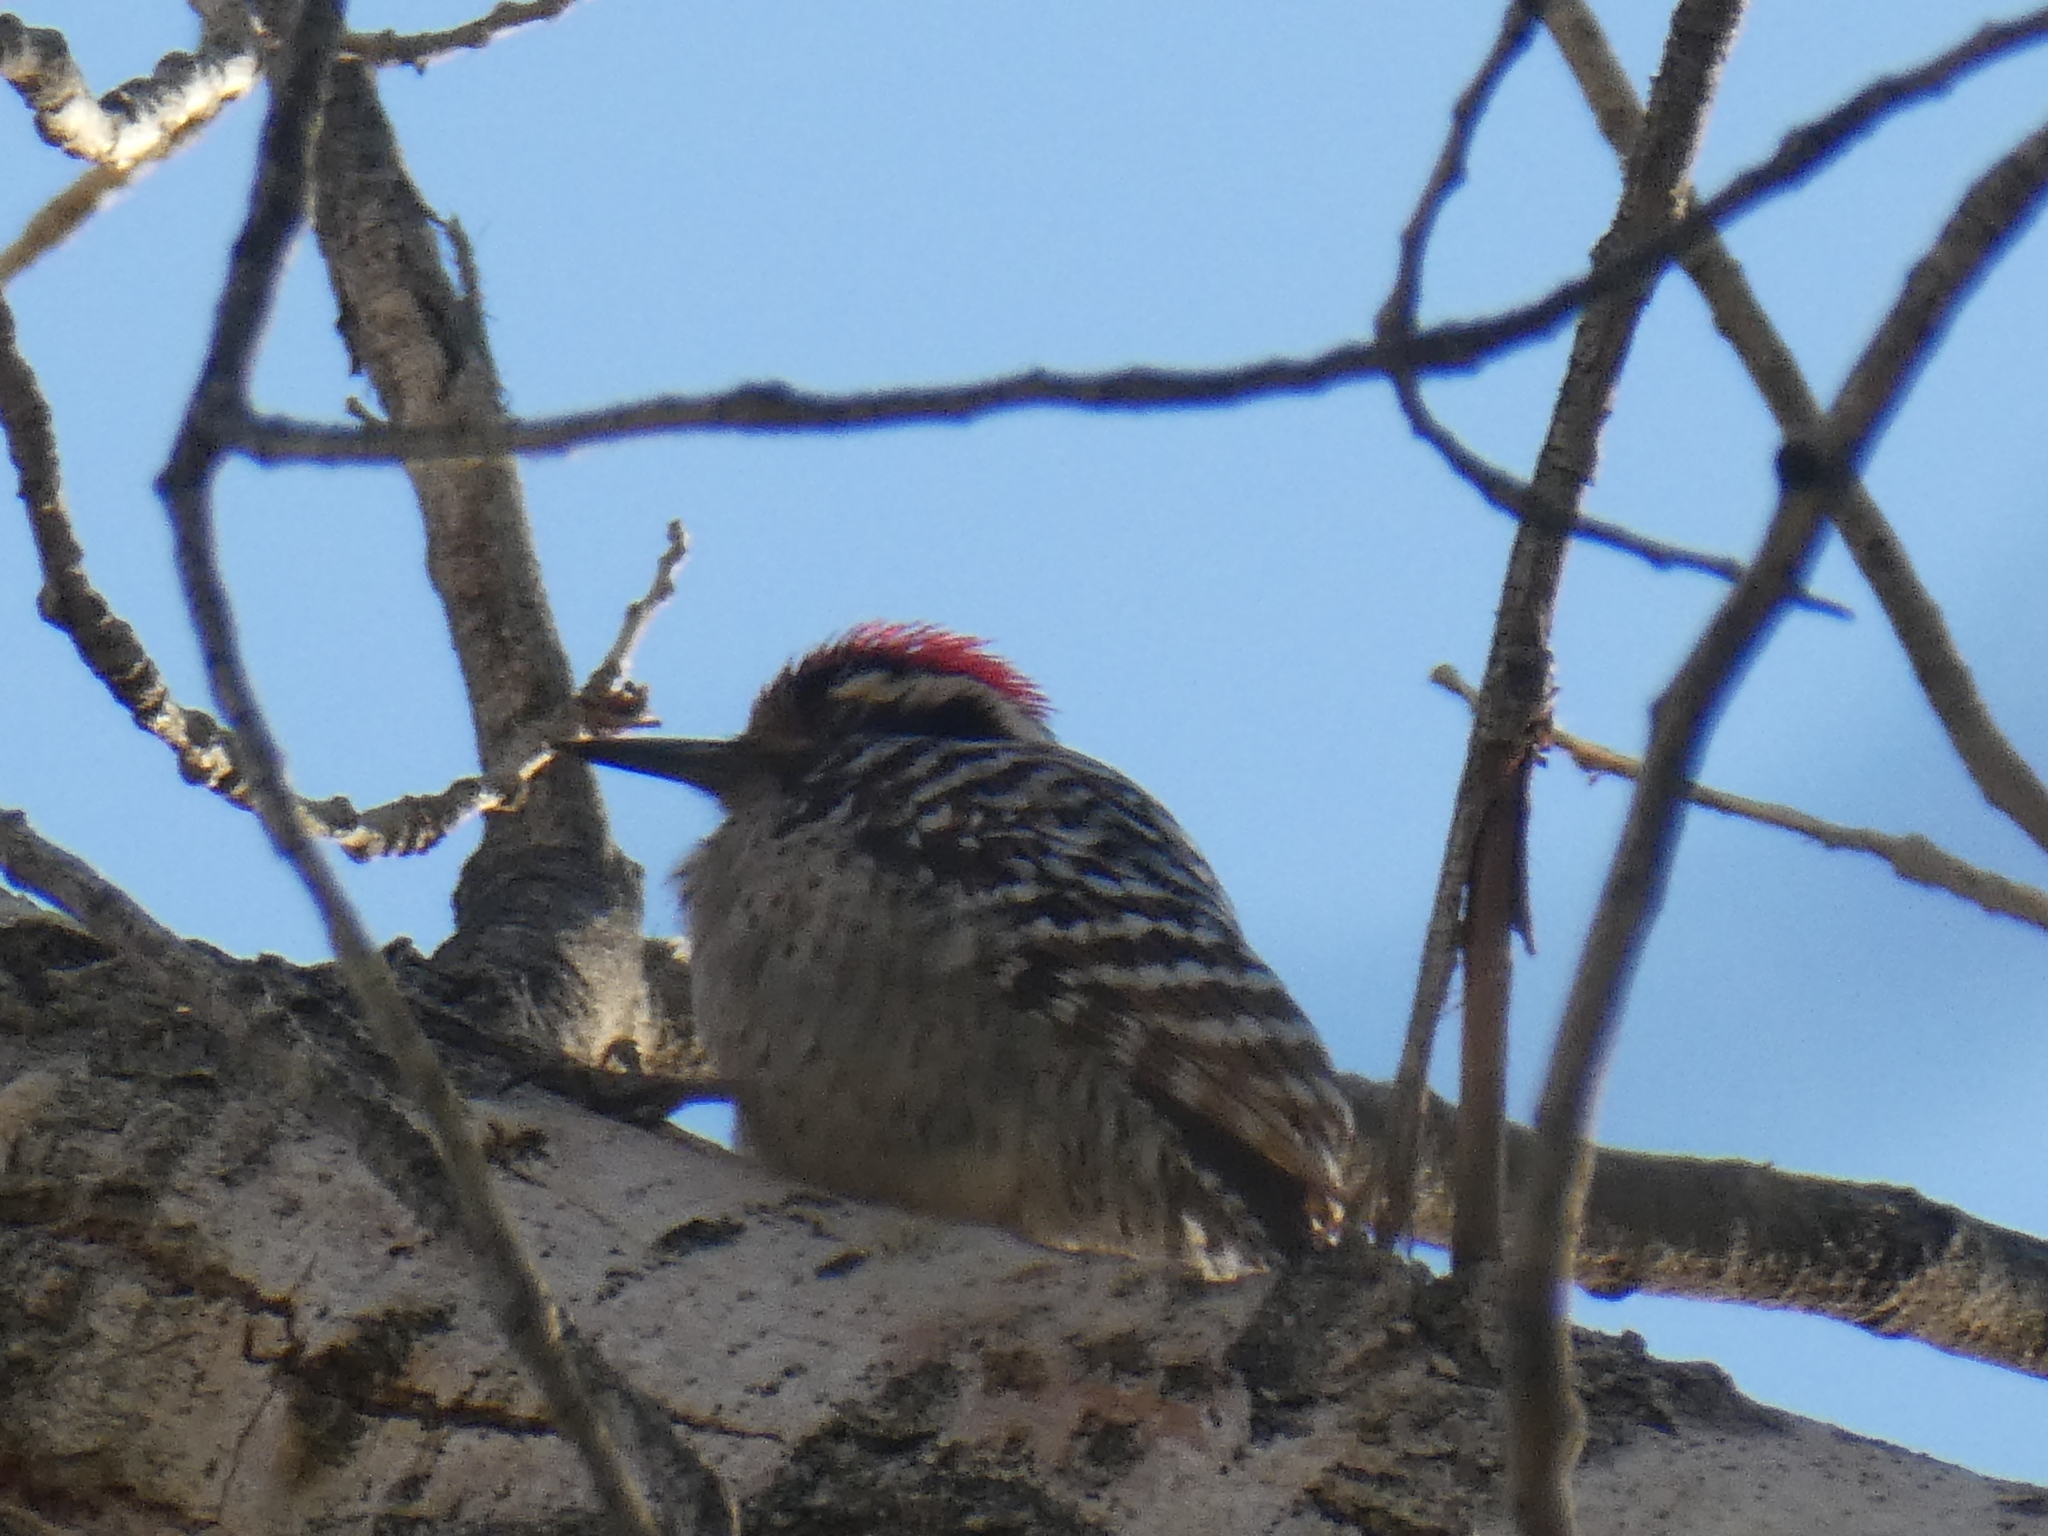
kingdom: Animalia
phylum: Chordata
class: Aves
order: Piciformes
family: Picidae
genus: Dryobates
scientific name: Dryobates scalaris
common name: Ladder-backed woodpecker
